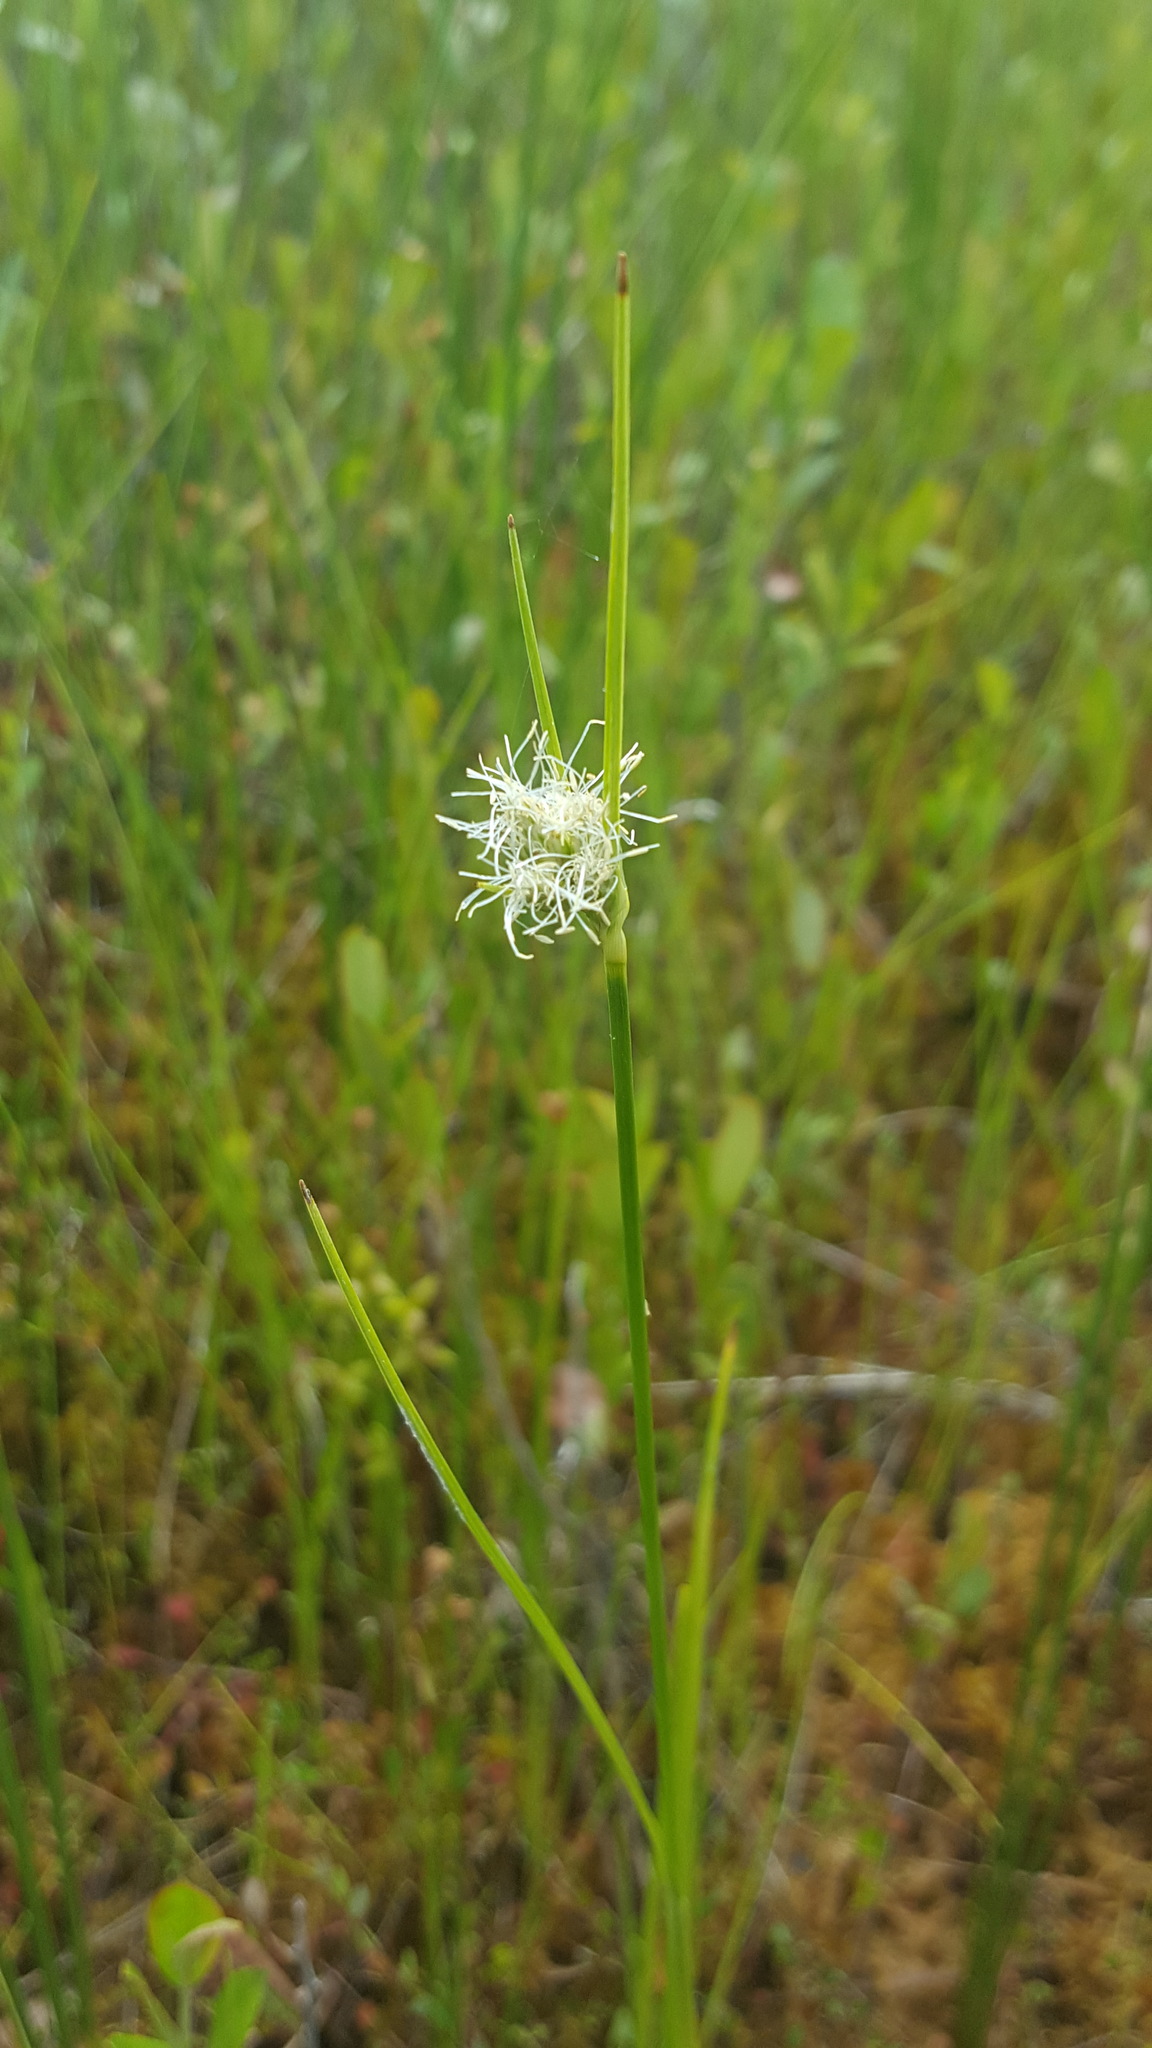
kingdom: Plantae
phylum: Tracheophyta
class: Liliopsida
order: Poales
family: Cyperaceae
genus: Eriophorum
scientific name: Eriophorum virginicum
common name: Tawny cottongrass
